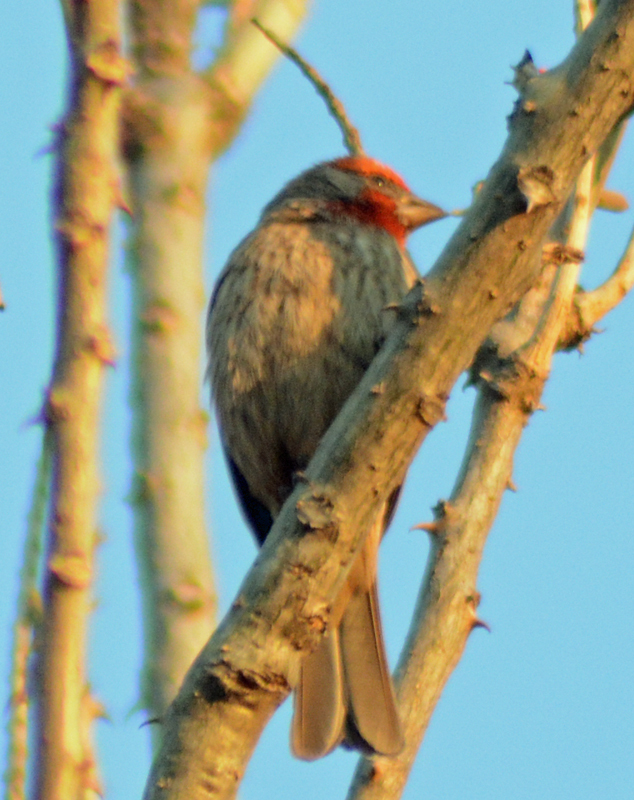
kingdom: Animalia
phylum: Chordata
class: Aves
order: Passeriformes
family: Fringillidae
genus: Haemorhous
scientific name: Haemorhous mexicanus
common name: House finch
